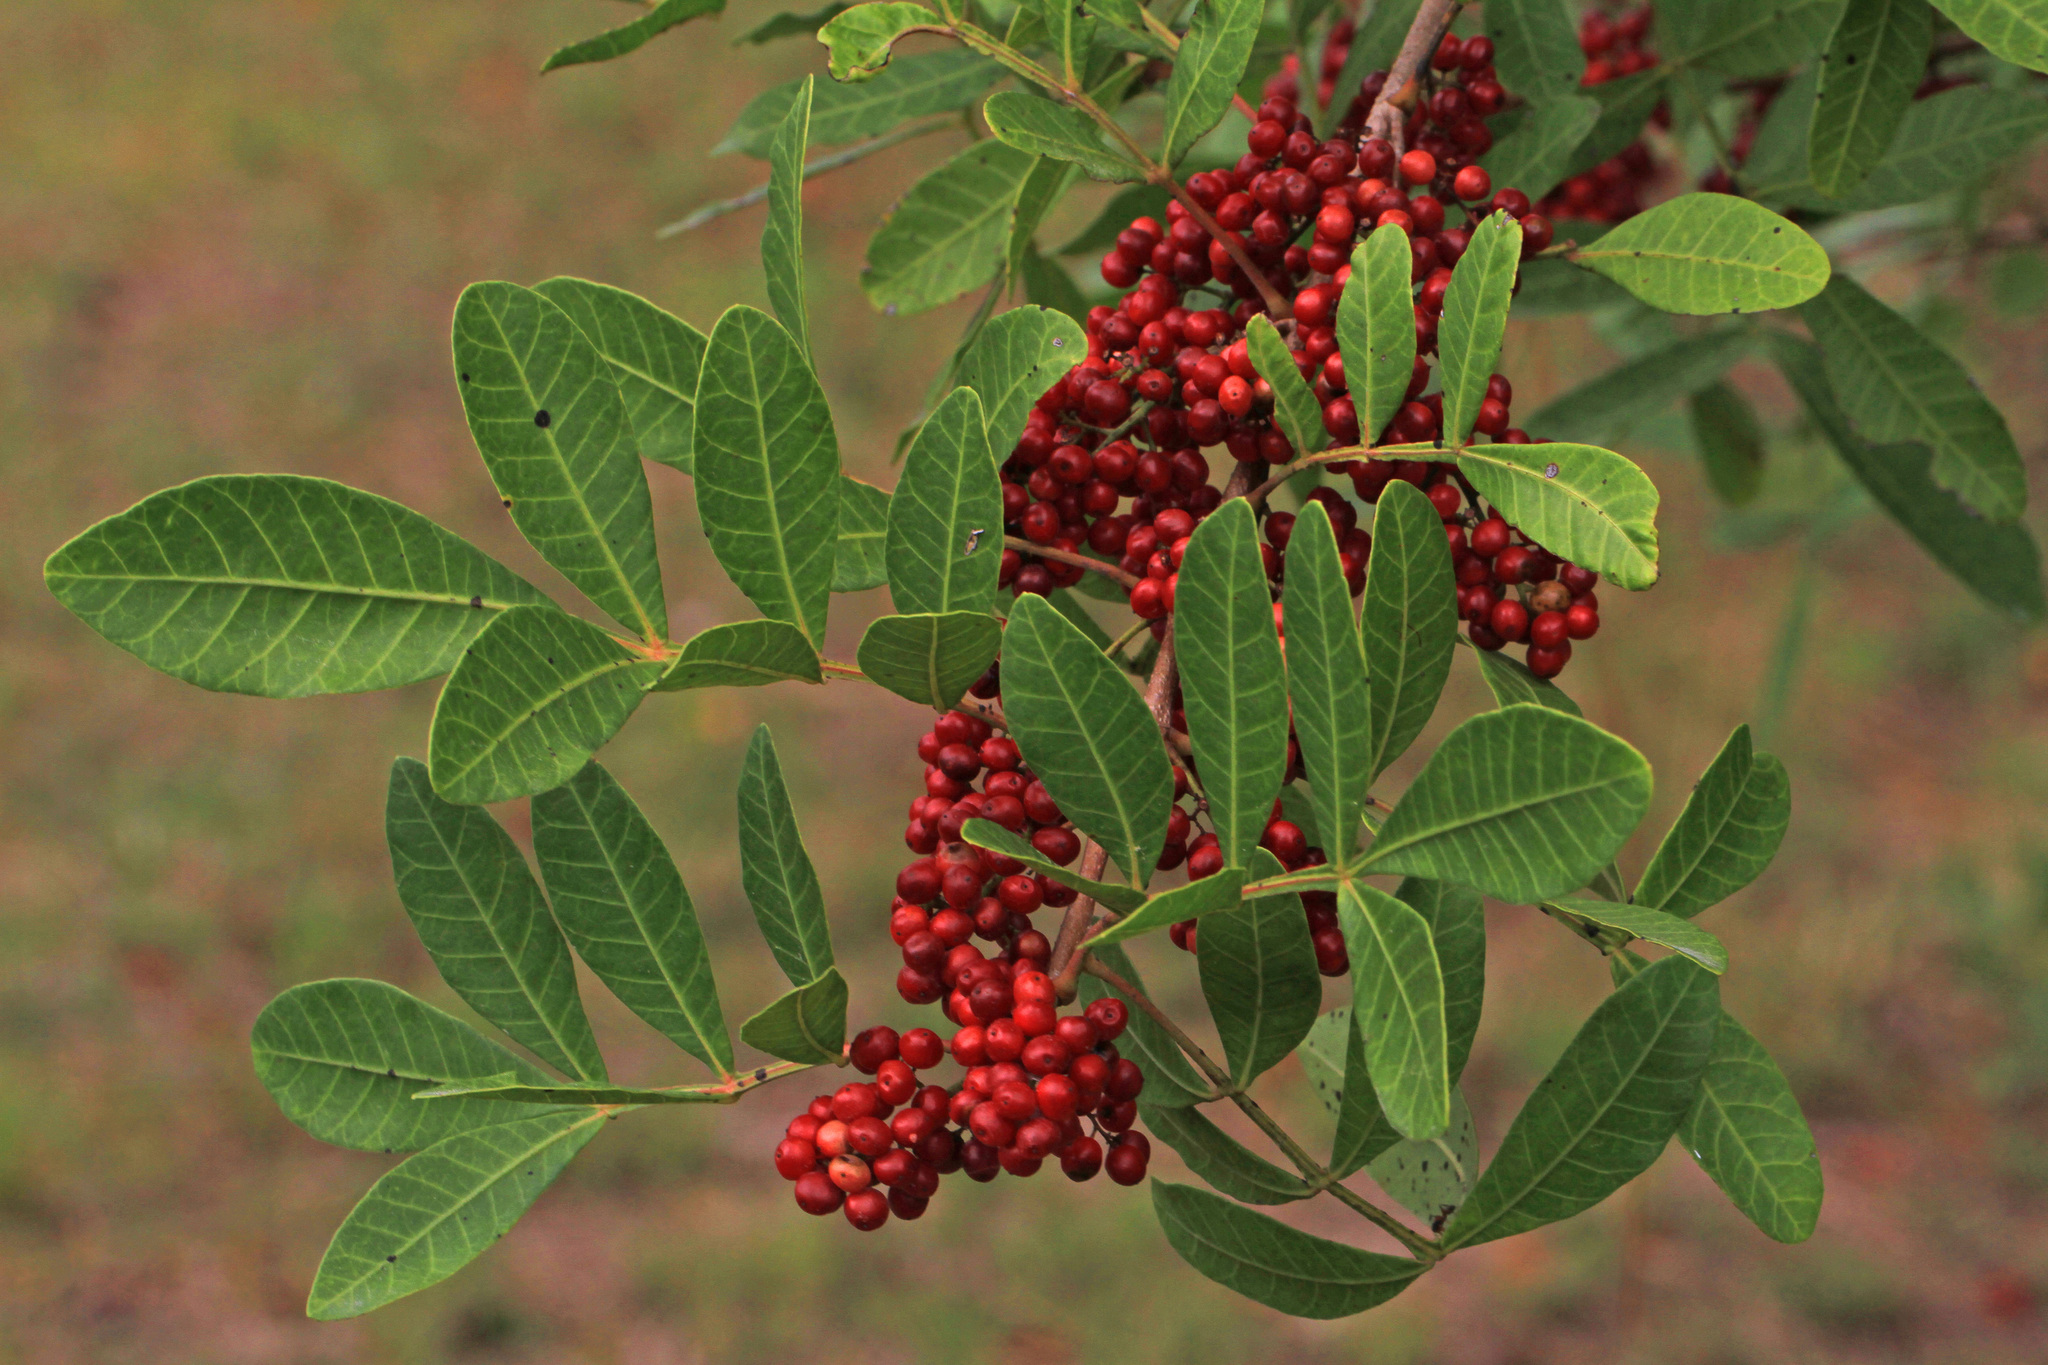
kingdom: Plantae
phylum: Tracheophyta
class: Magnoliopsida
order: Sapindales
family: Anacardiaceae
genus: Schinus
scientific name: Schinus terebinthifolia
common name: Brazilian peppertree
